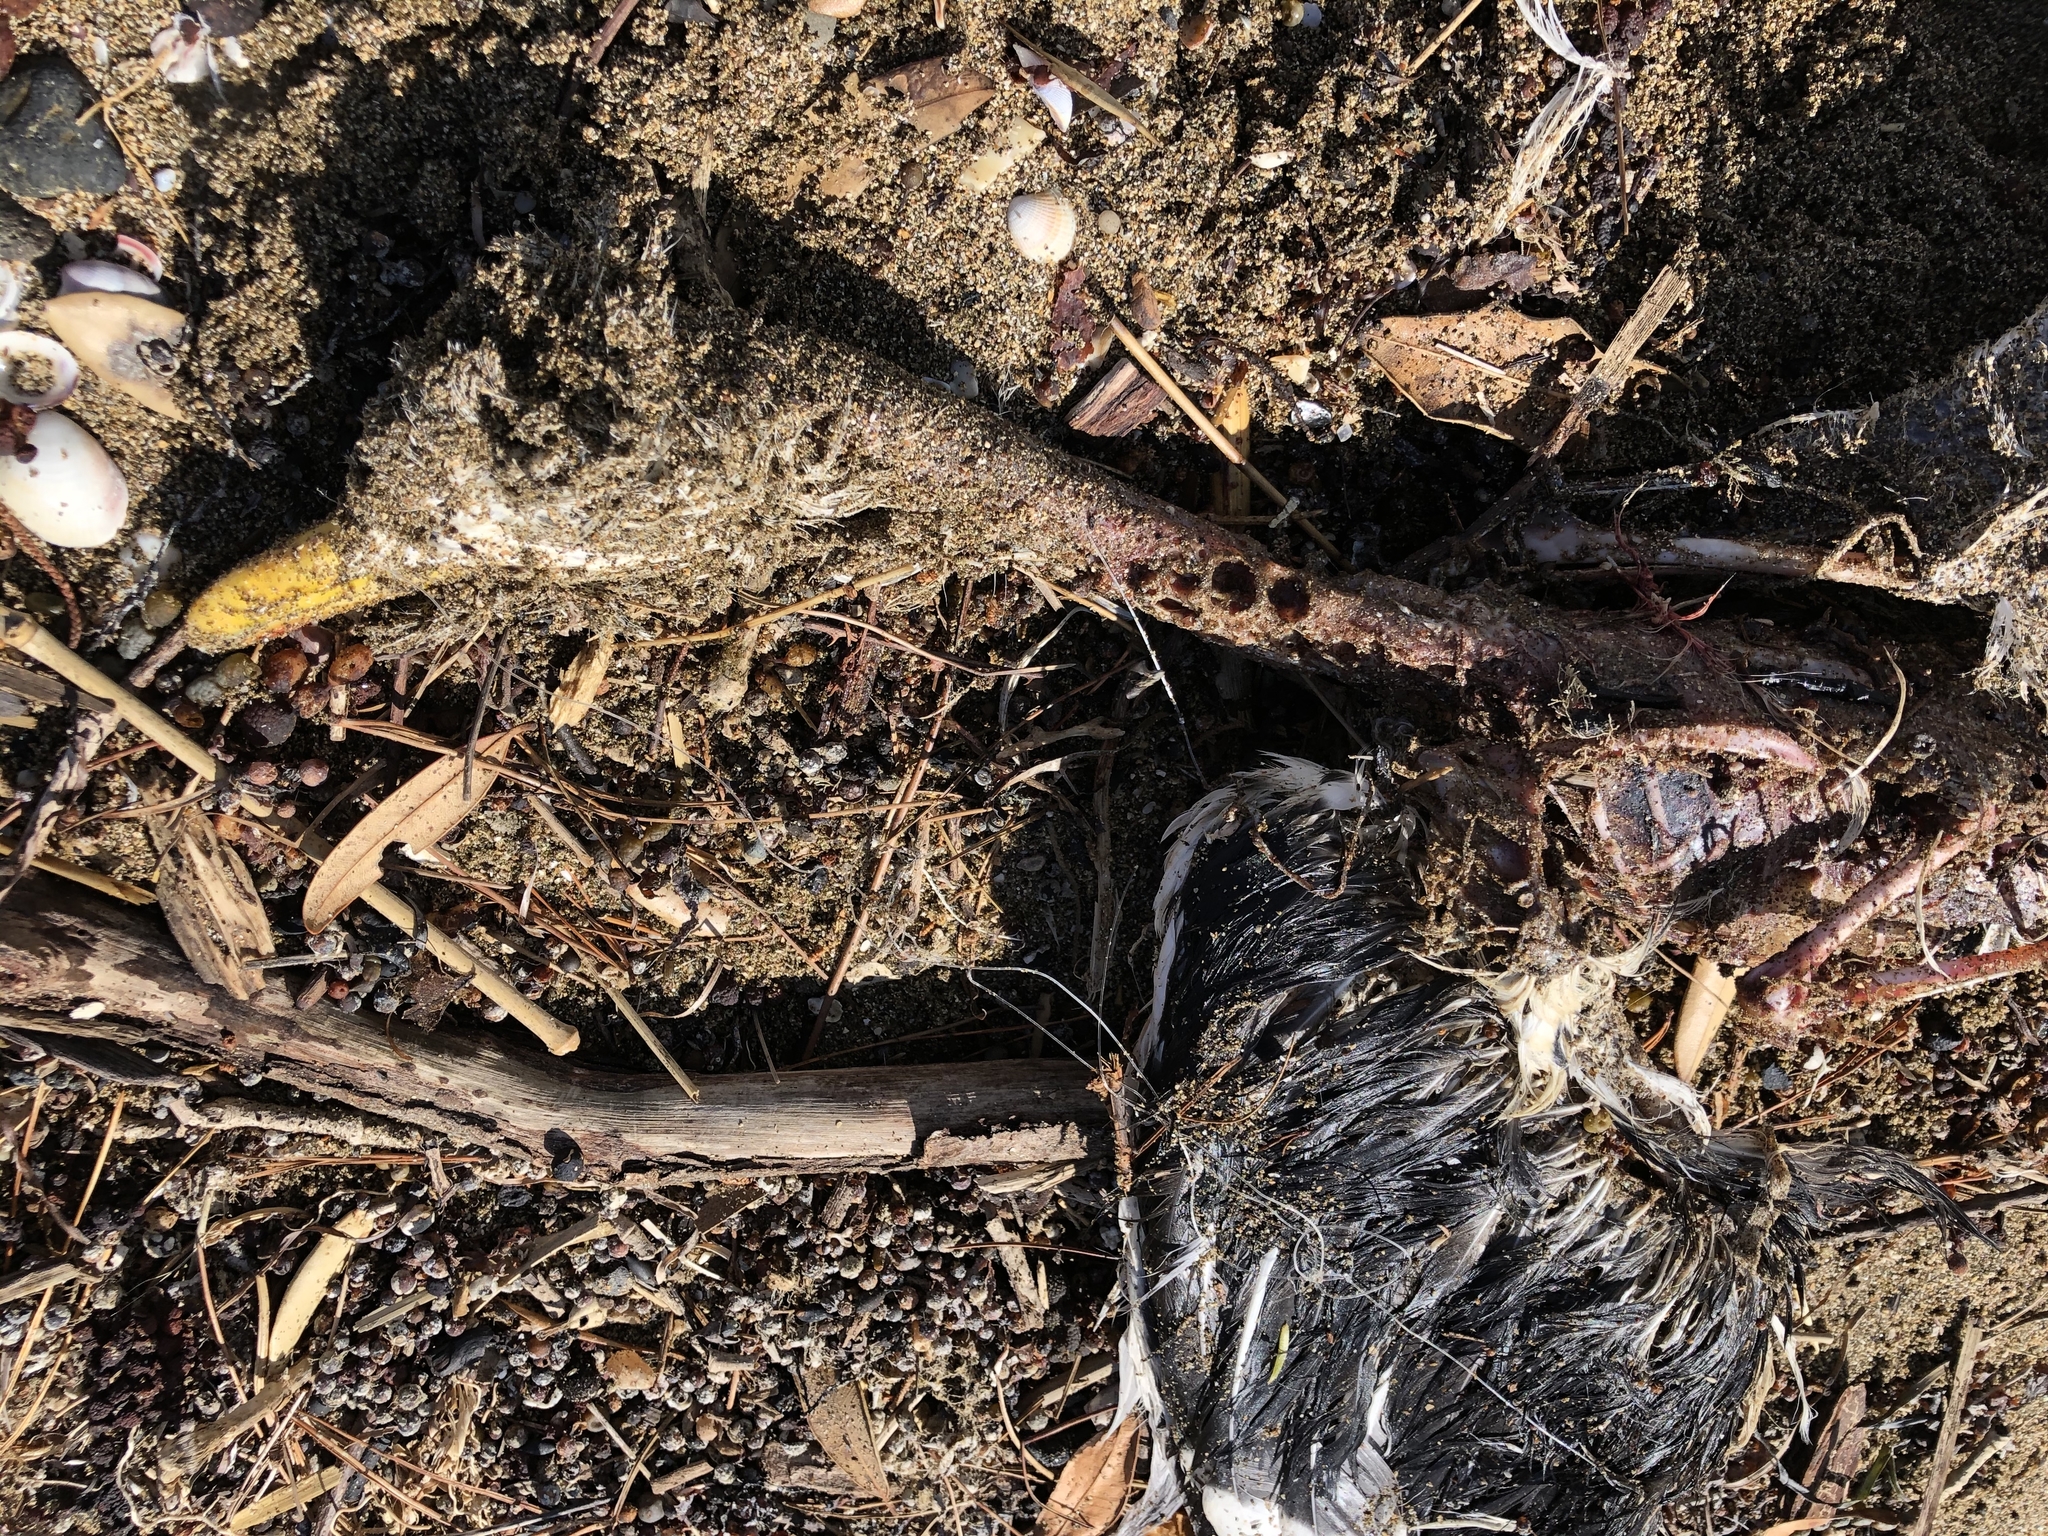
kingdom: Animalia
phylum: Chordata
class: Aves
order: Charadriiformes
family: Laridae
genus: Larus
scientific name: Larus dominicanus
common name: Kelp gull
